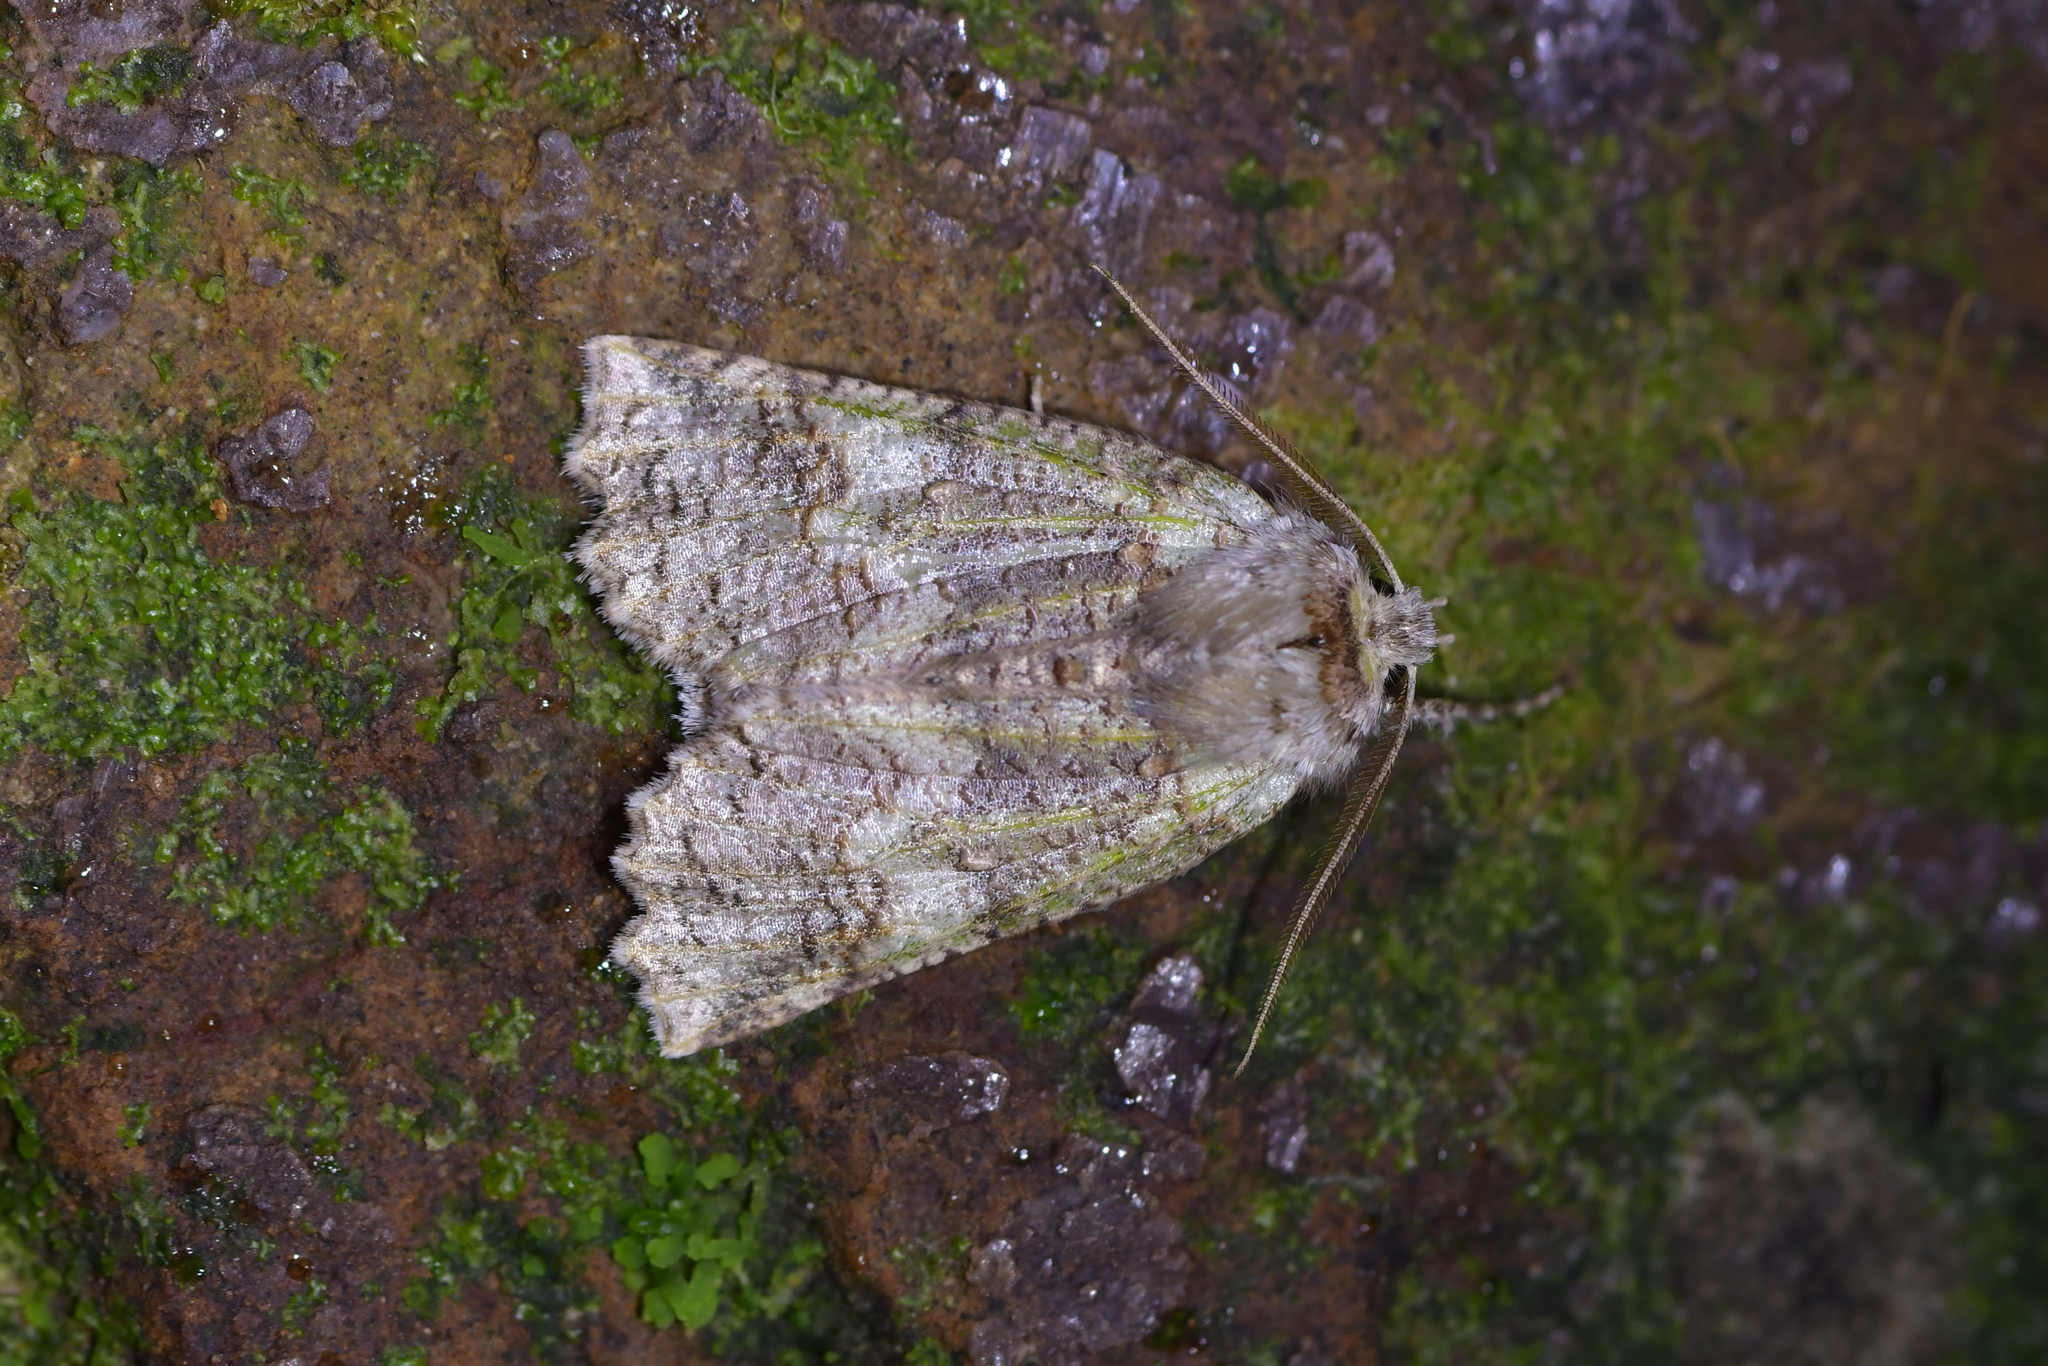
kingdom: Animalia
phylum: Arthropoda
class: Insecta
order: Lepidoptera
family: Geometridae
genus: Declana
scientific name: Declana floccosa
